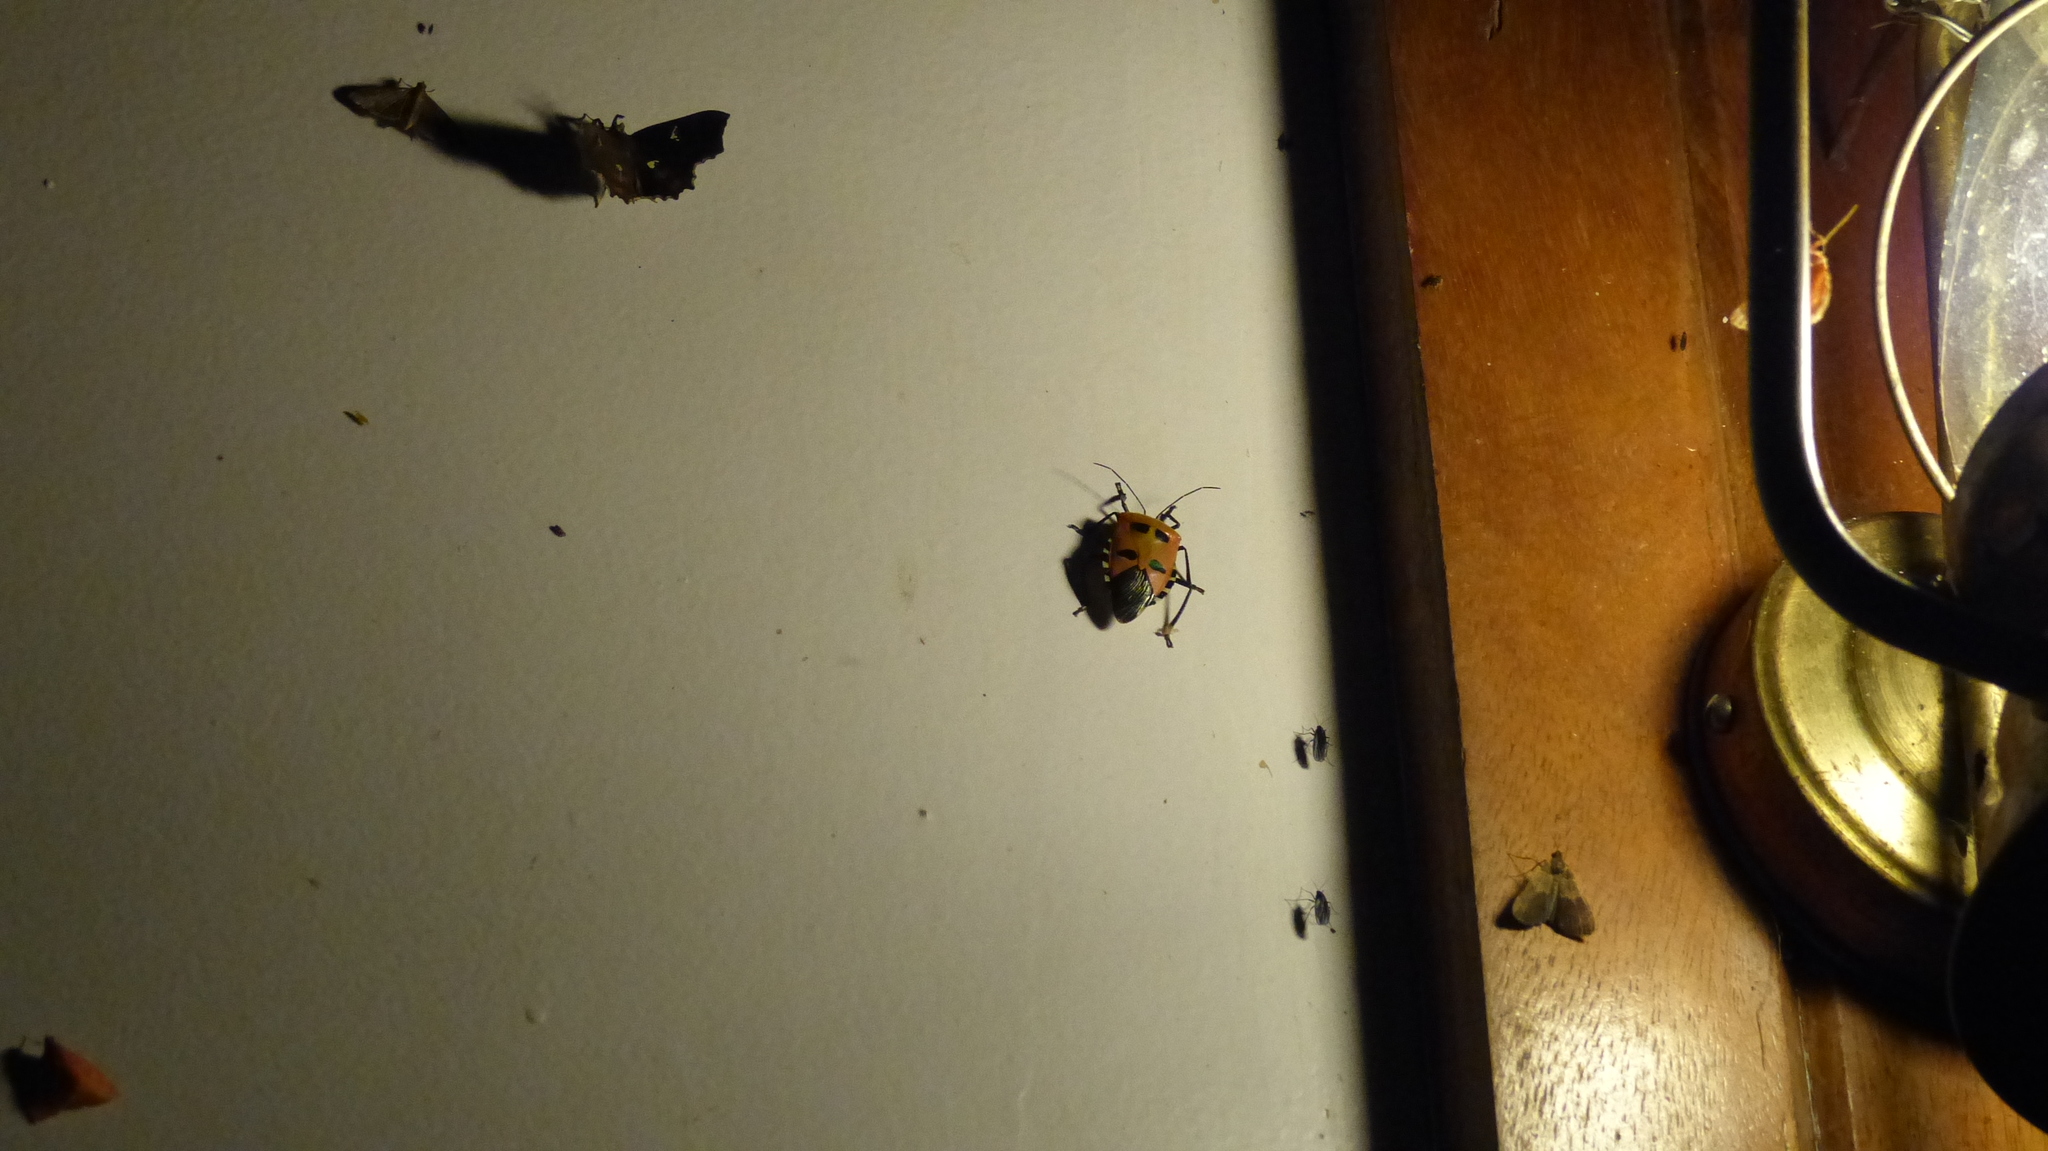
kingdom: Animalia
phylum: Arthropoda
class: Insecta
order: Hemiptera
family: Pentatomidae
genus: Catacanthus
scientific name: Catacanthus incarnatus
